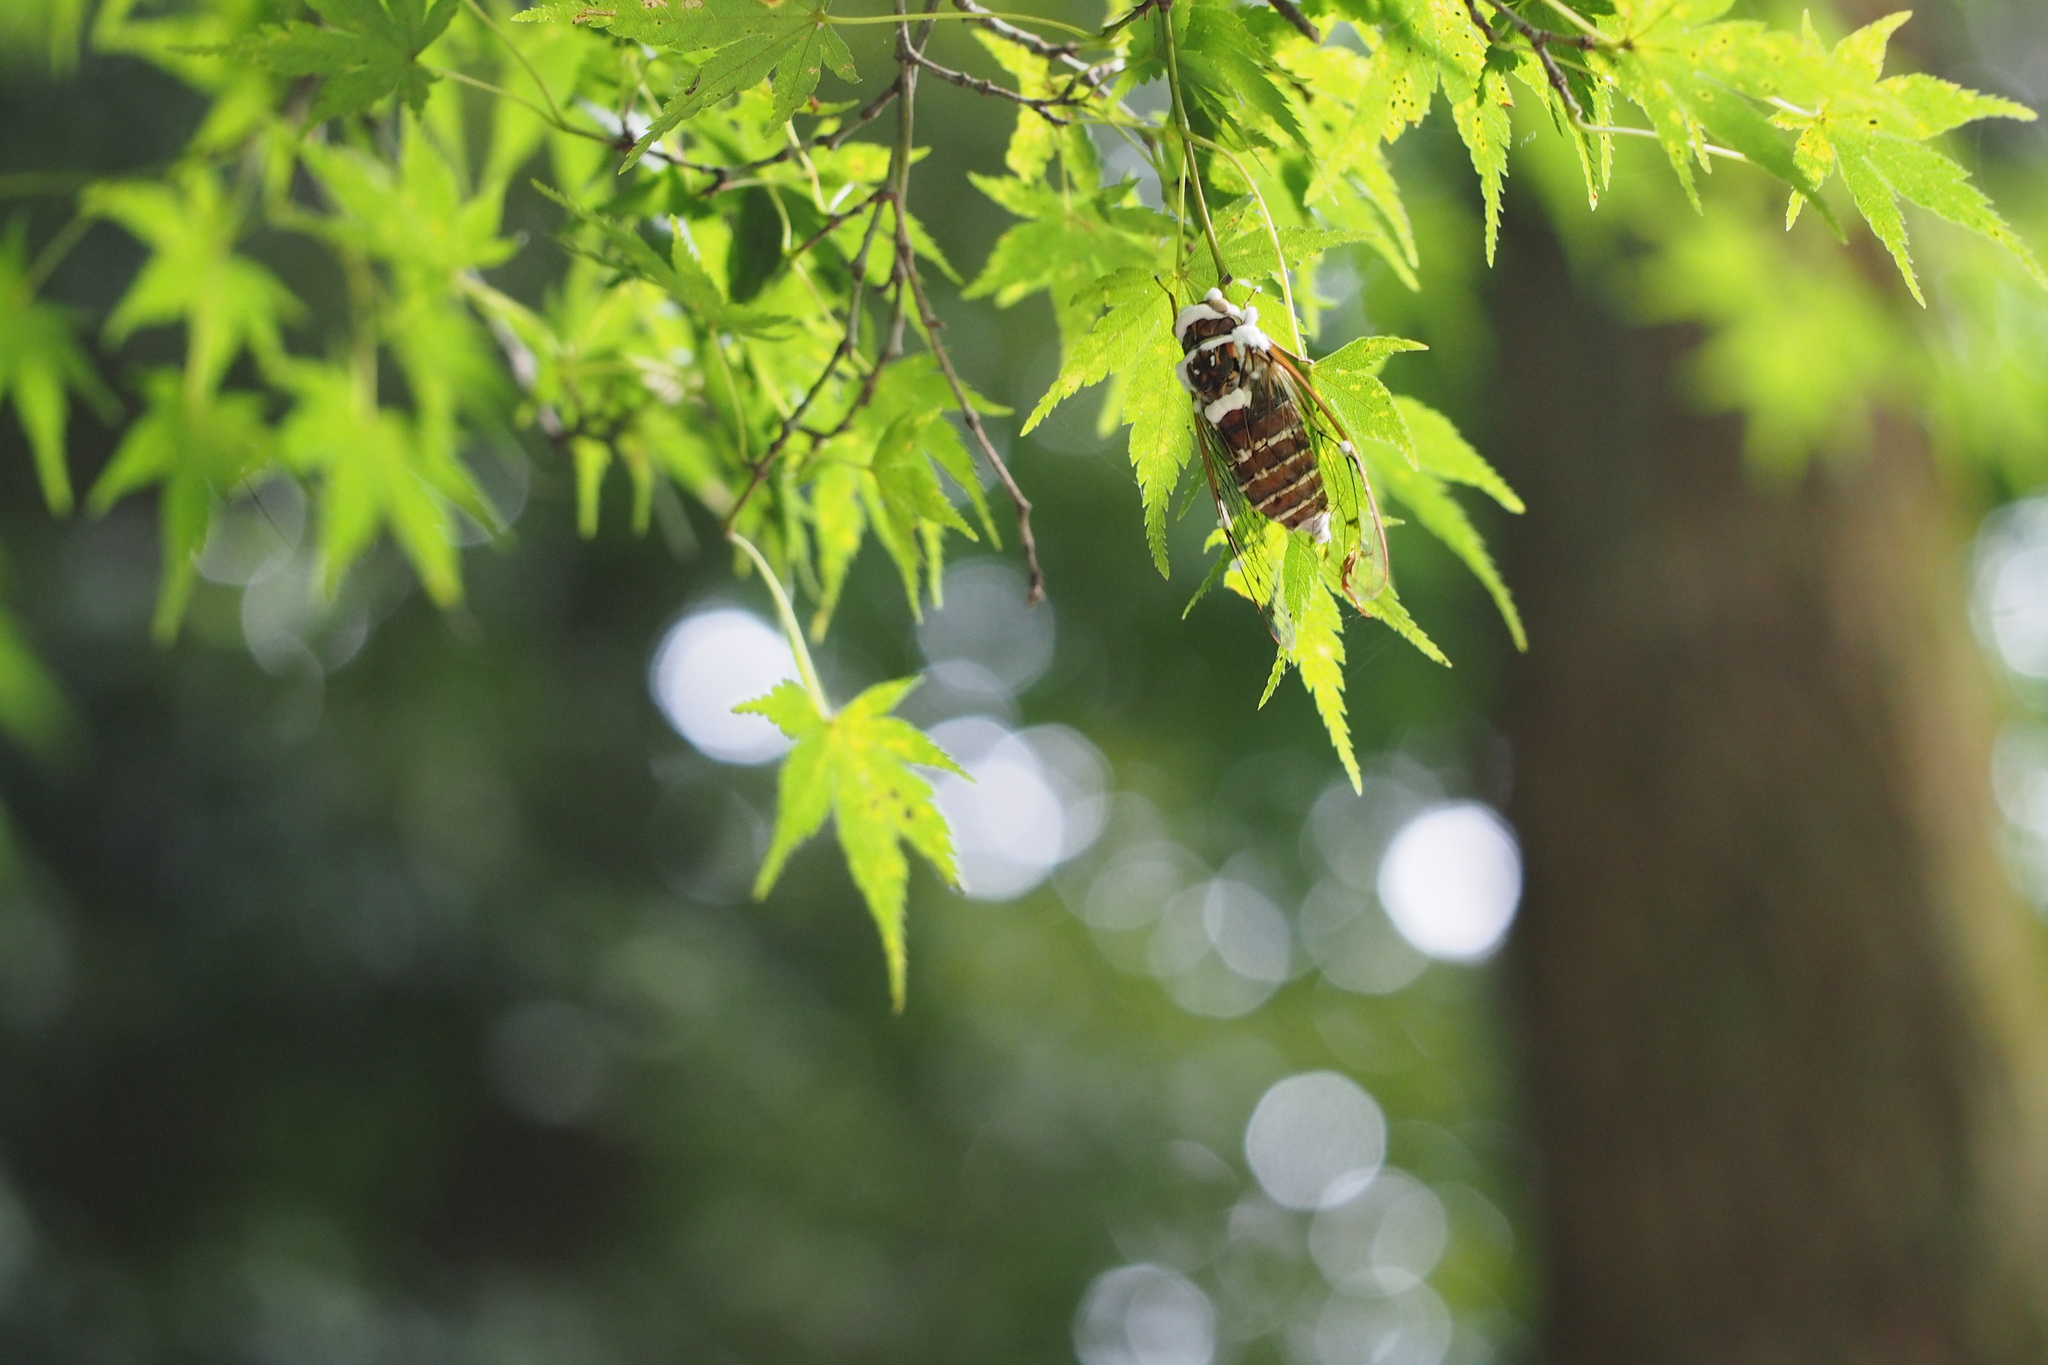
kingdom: Animalia
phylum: Arthropoda
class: Insecta
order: Hemiptera
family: Cicadidae
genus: Tanna
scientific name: Tanna japonensis
